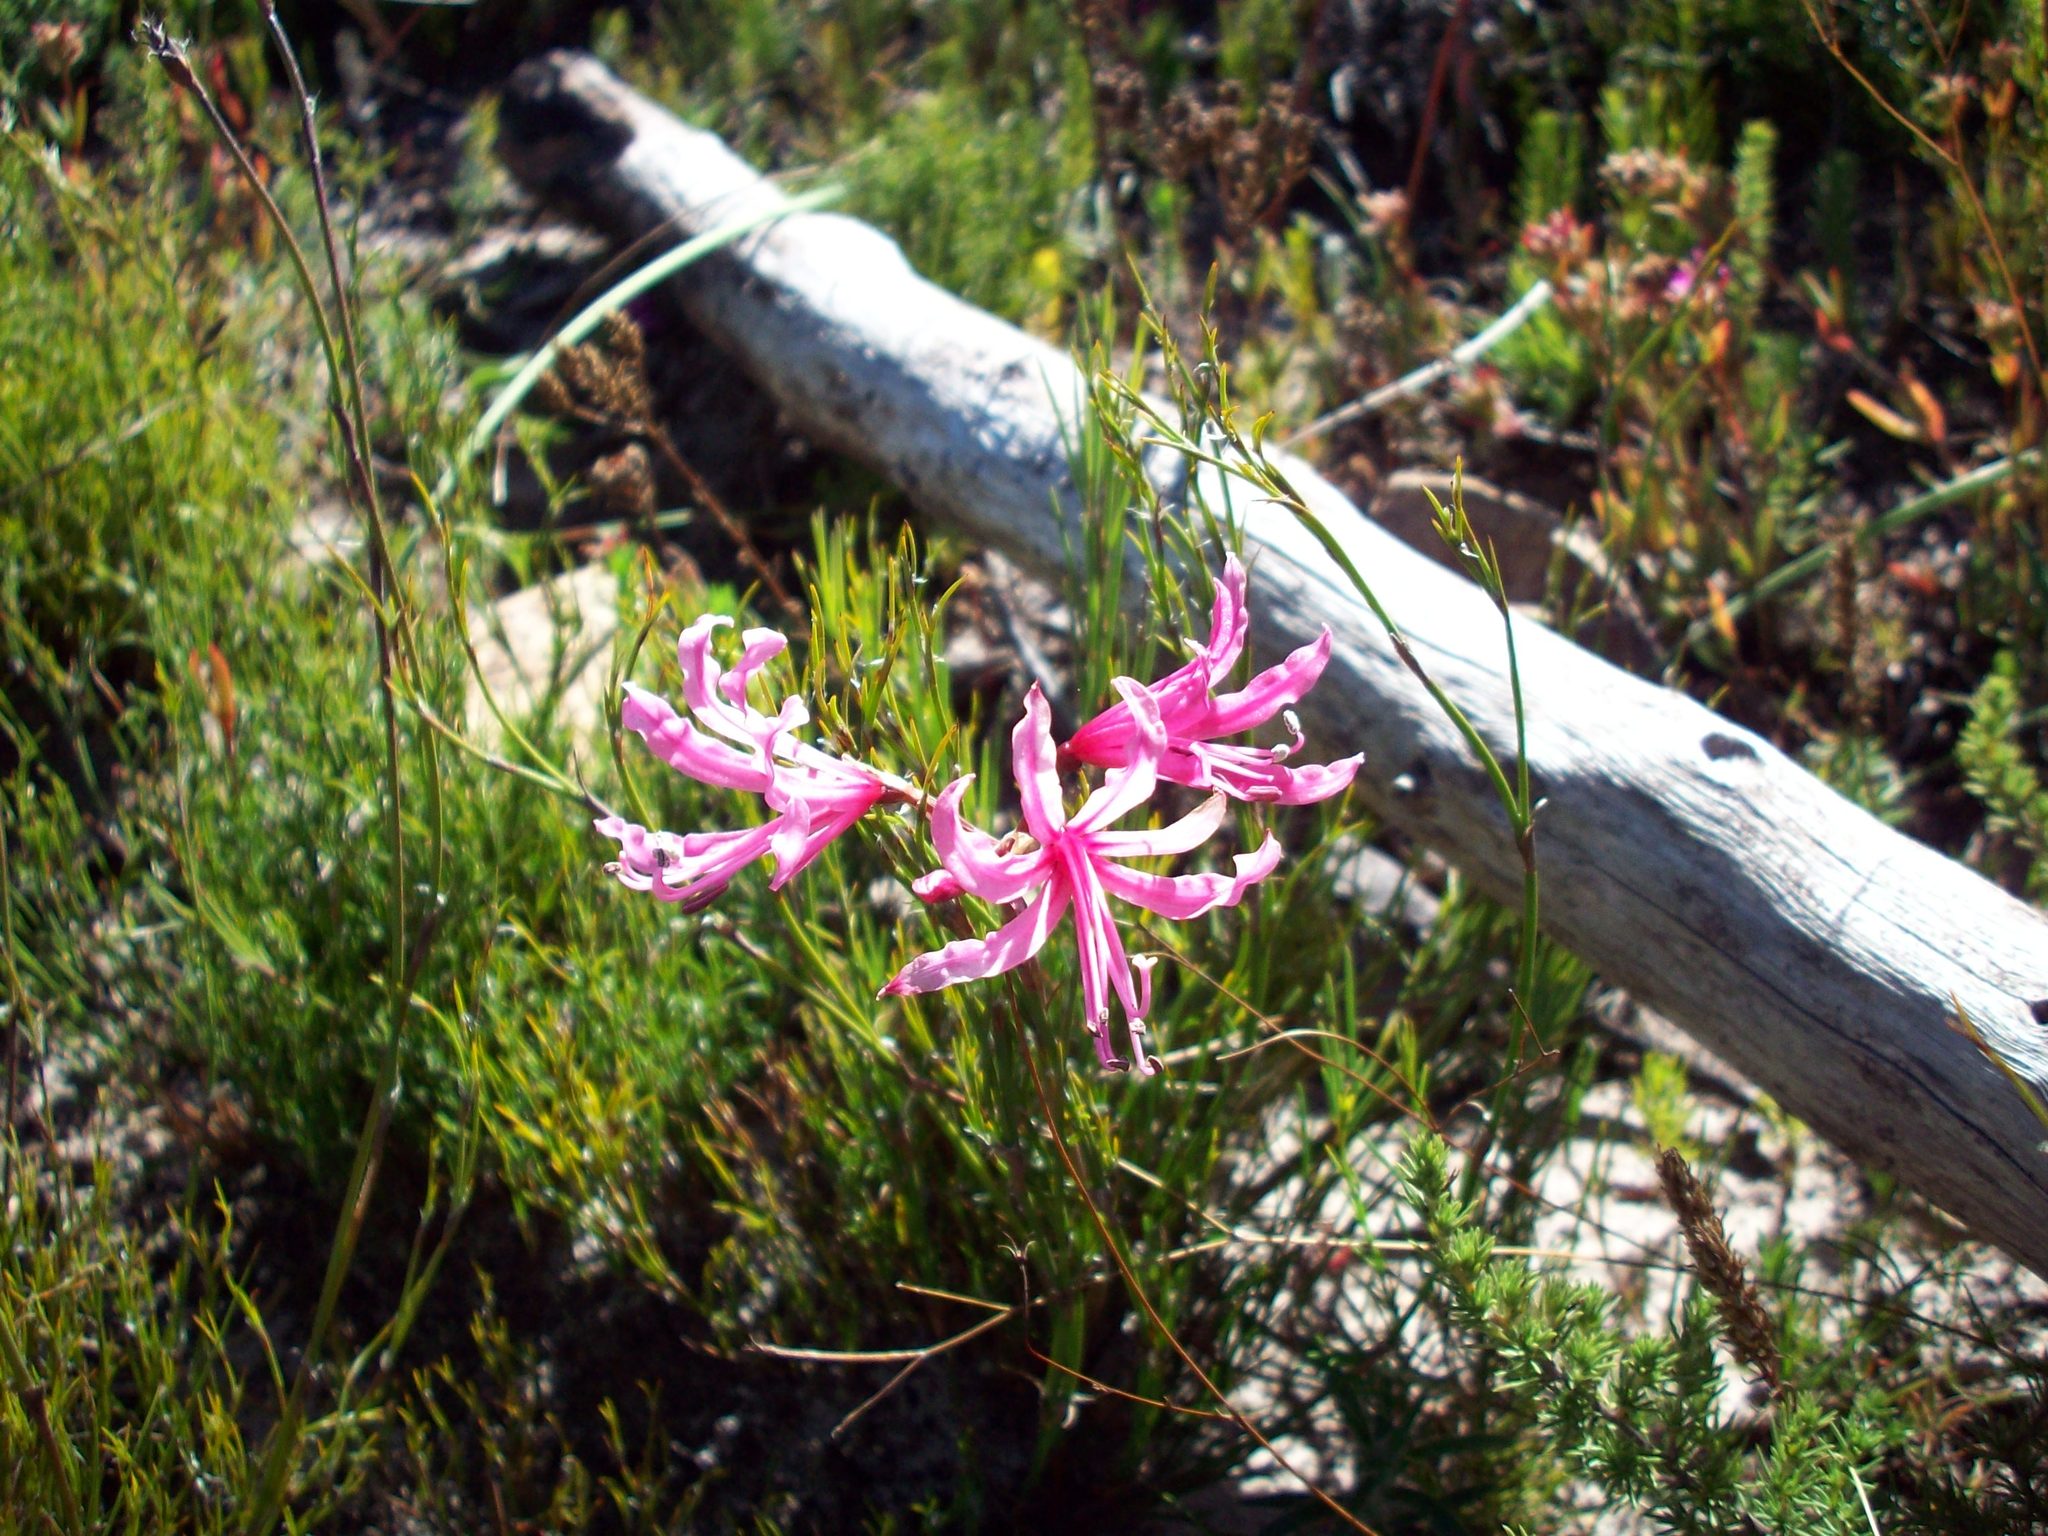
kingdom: Plantae
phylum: Tracheophyta
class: Liliopsida
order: Asparagales
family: Amaryllidaceae
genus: Nerine
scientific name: Nerine humilis
